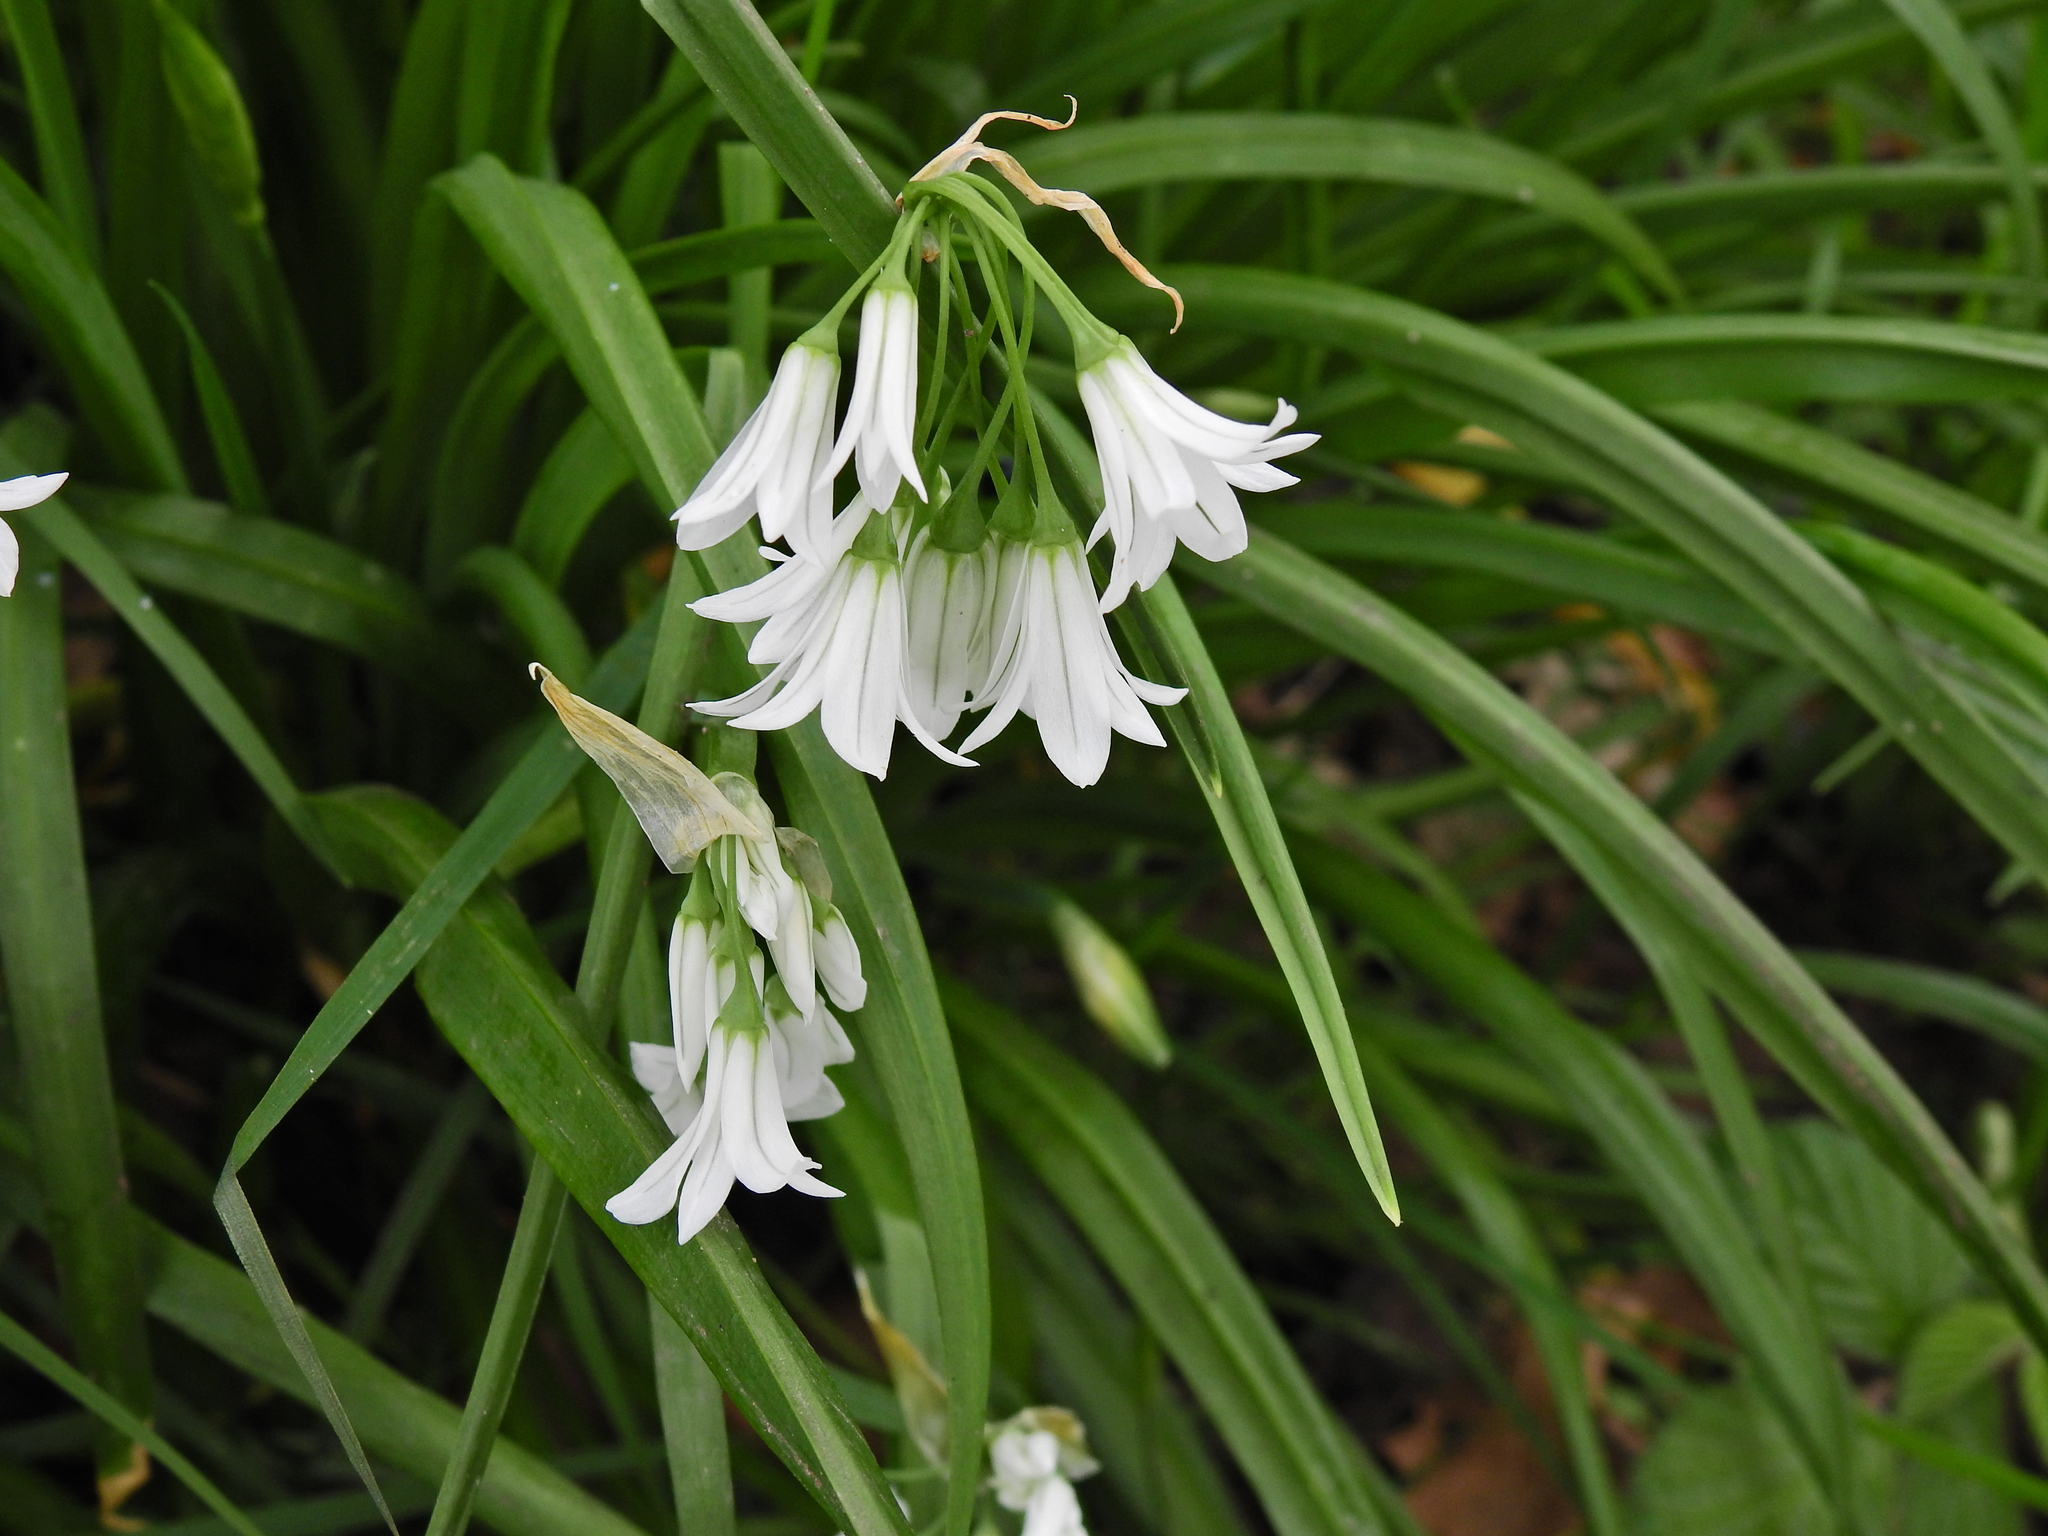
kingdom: Plantae
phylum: Tracheophyta
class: Liliopsida
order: Asparagales
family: Amaryllidaceae
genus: Allium
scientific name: Allium triquetrum
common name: Three-cornered garlic
